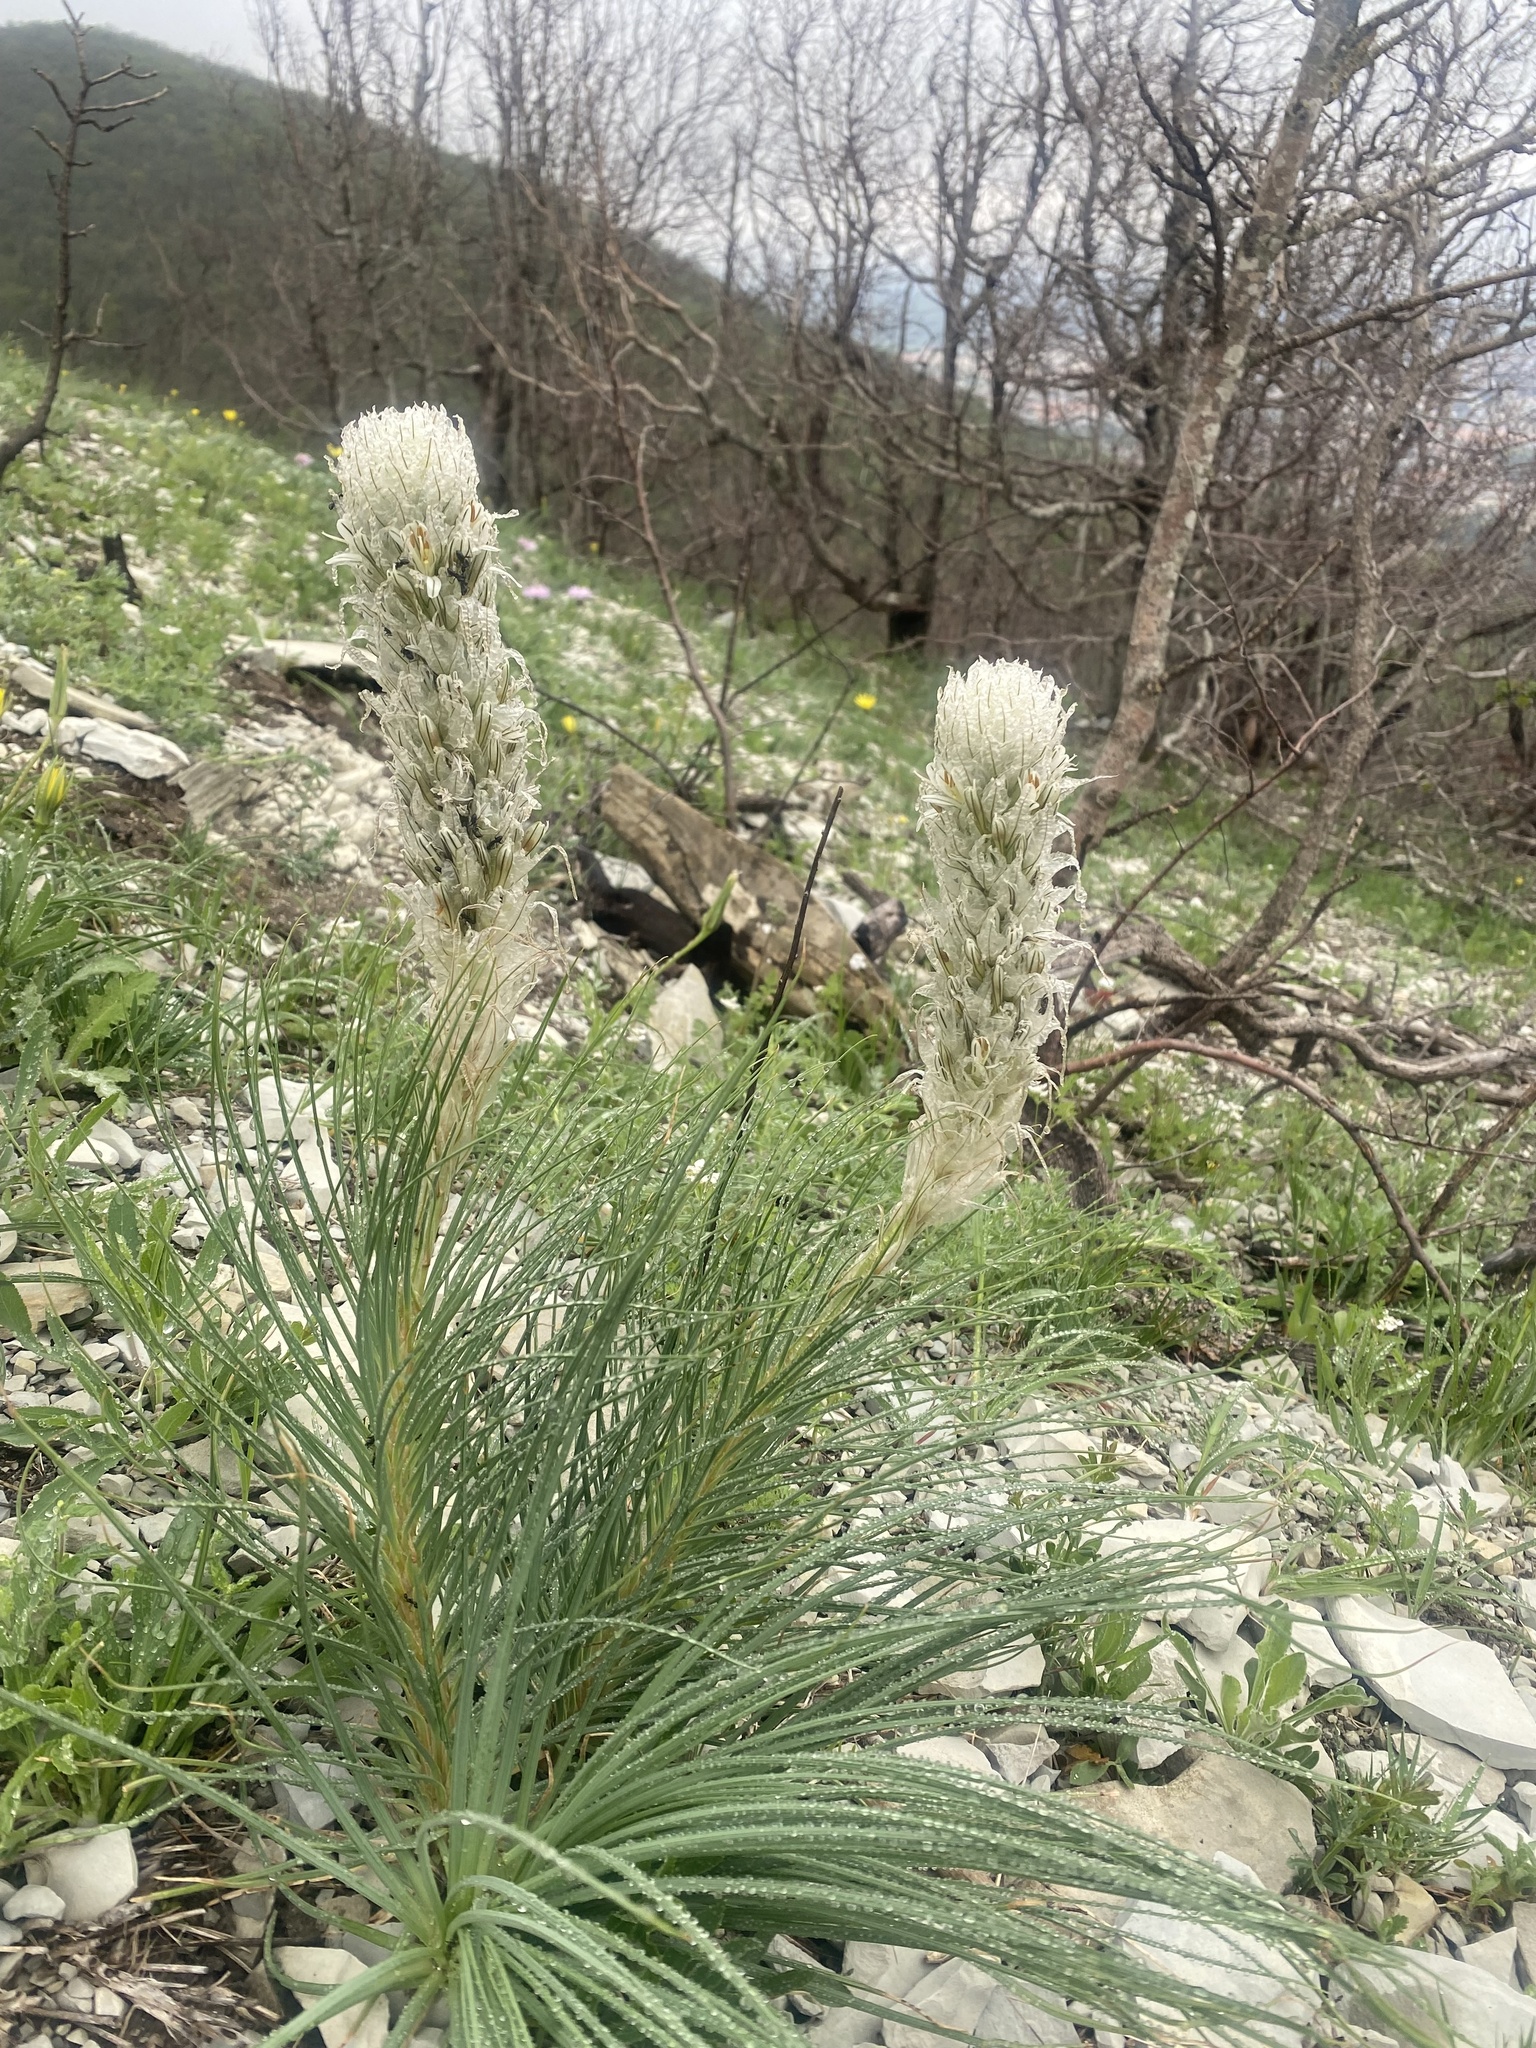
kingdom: Plantae
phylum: Tracheophyta
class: Liliopsida
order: Asparagales
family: Asphodelaceae
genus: Asphodeline
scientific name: Asphodeline taurica
